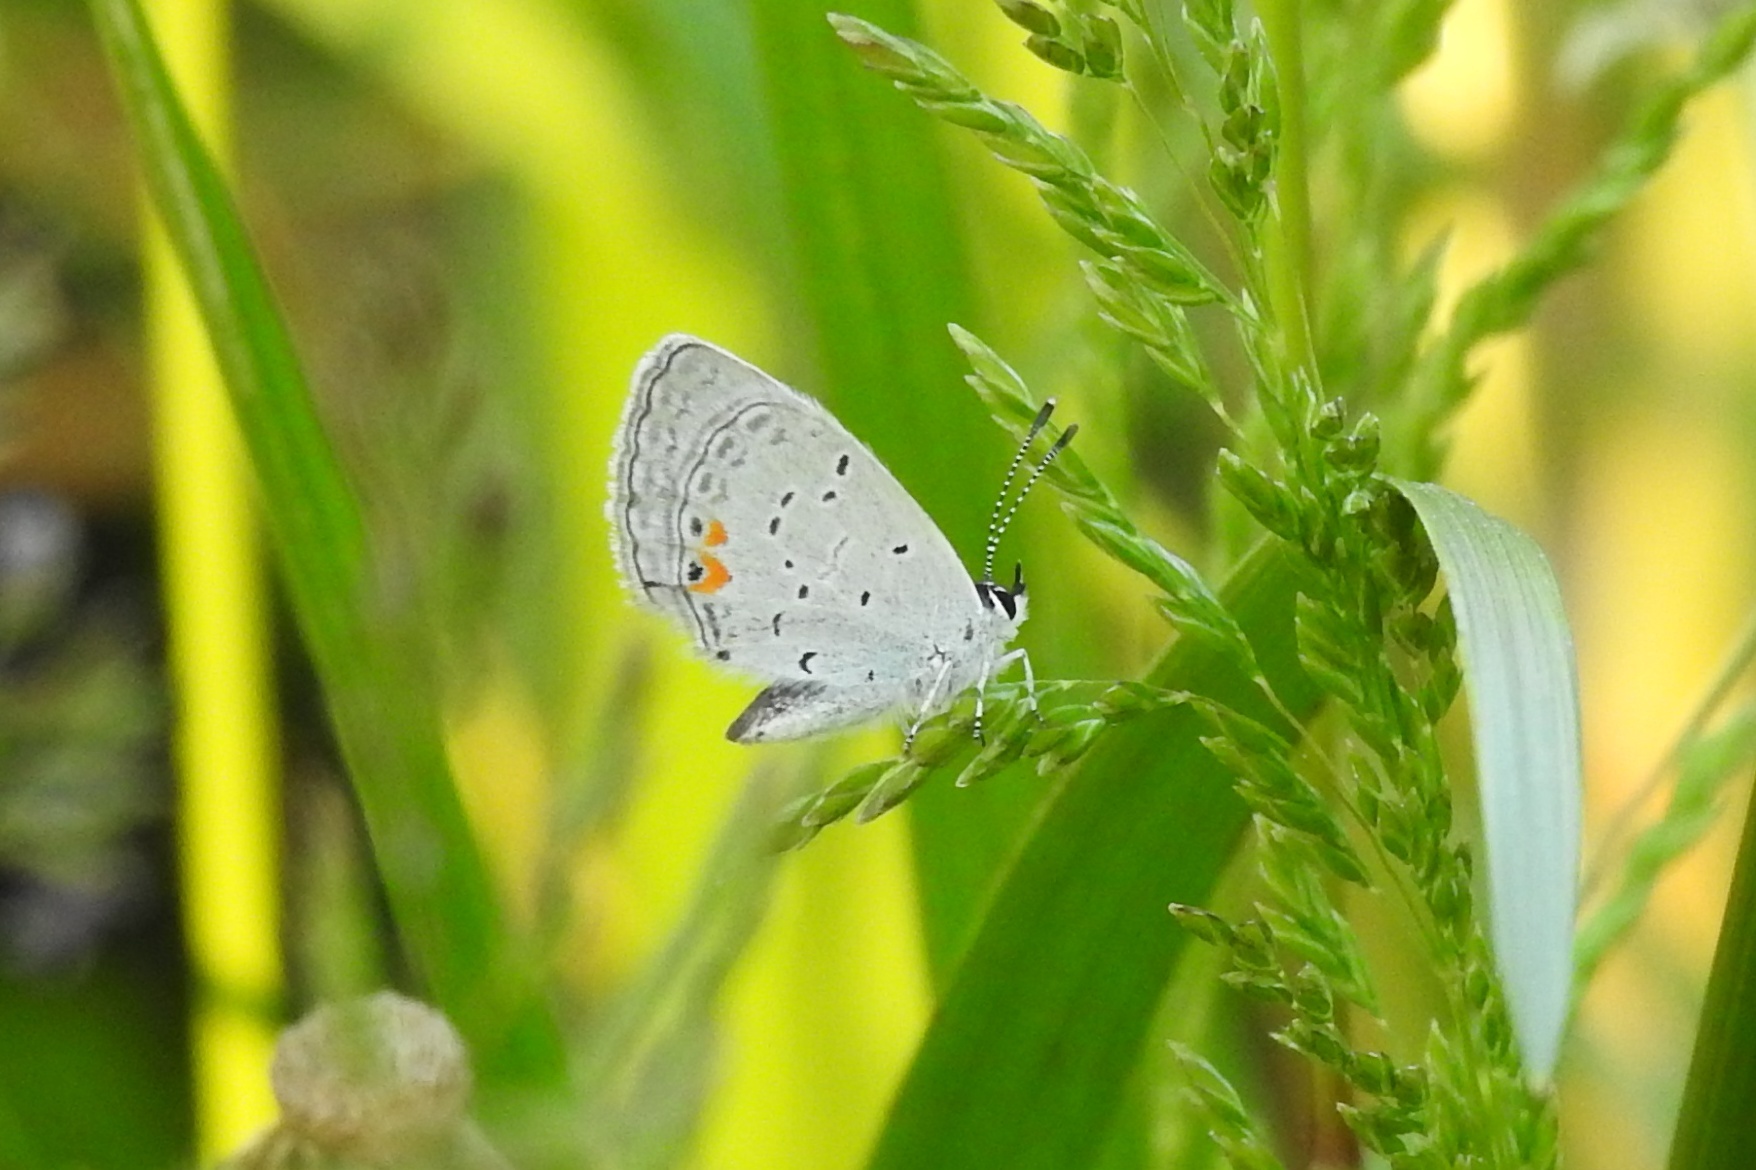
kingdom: Animalia
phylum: Arthropoda
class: Insecta
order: Lepidoptera
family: Lycaenidae
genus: Elkalyce
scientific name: Elkalyce comyntas
